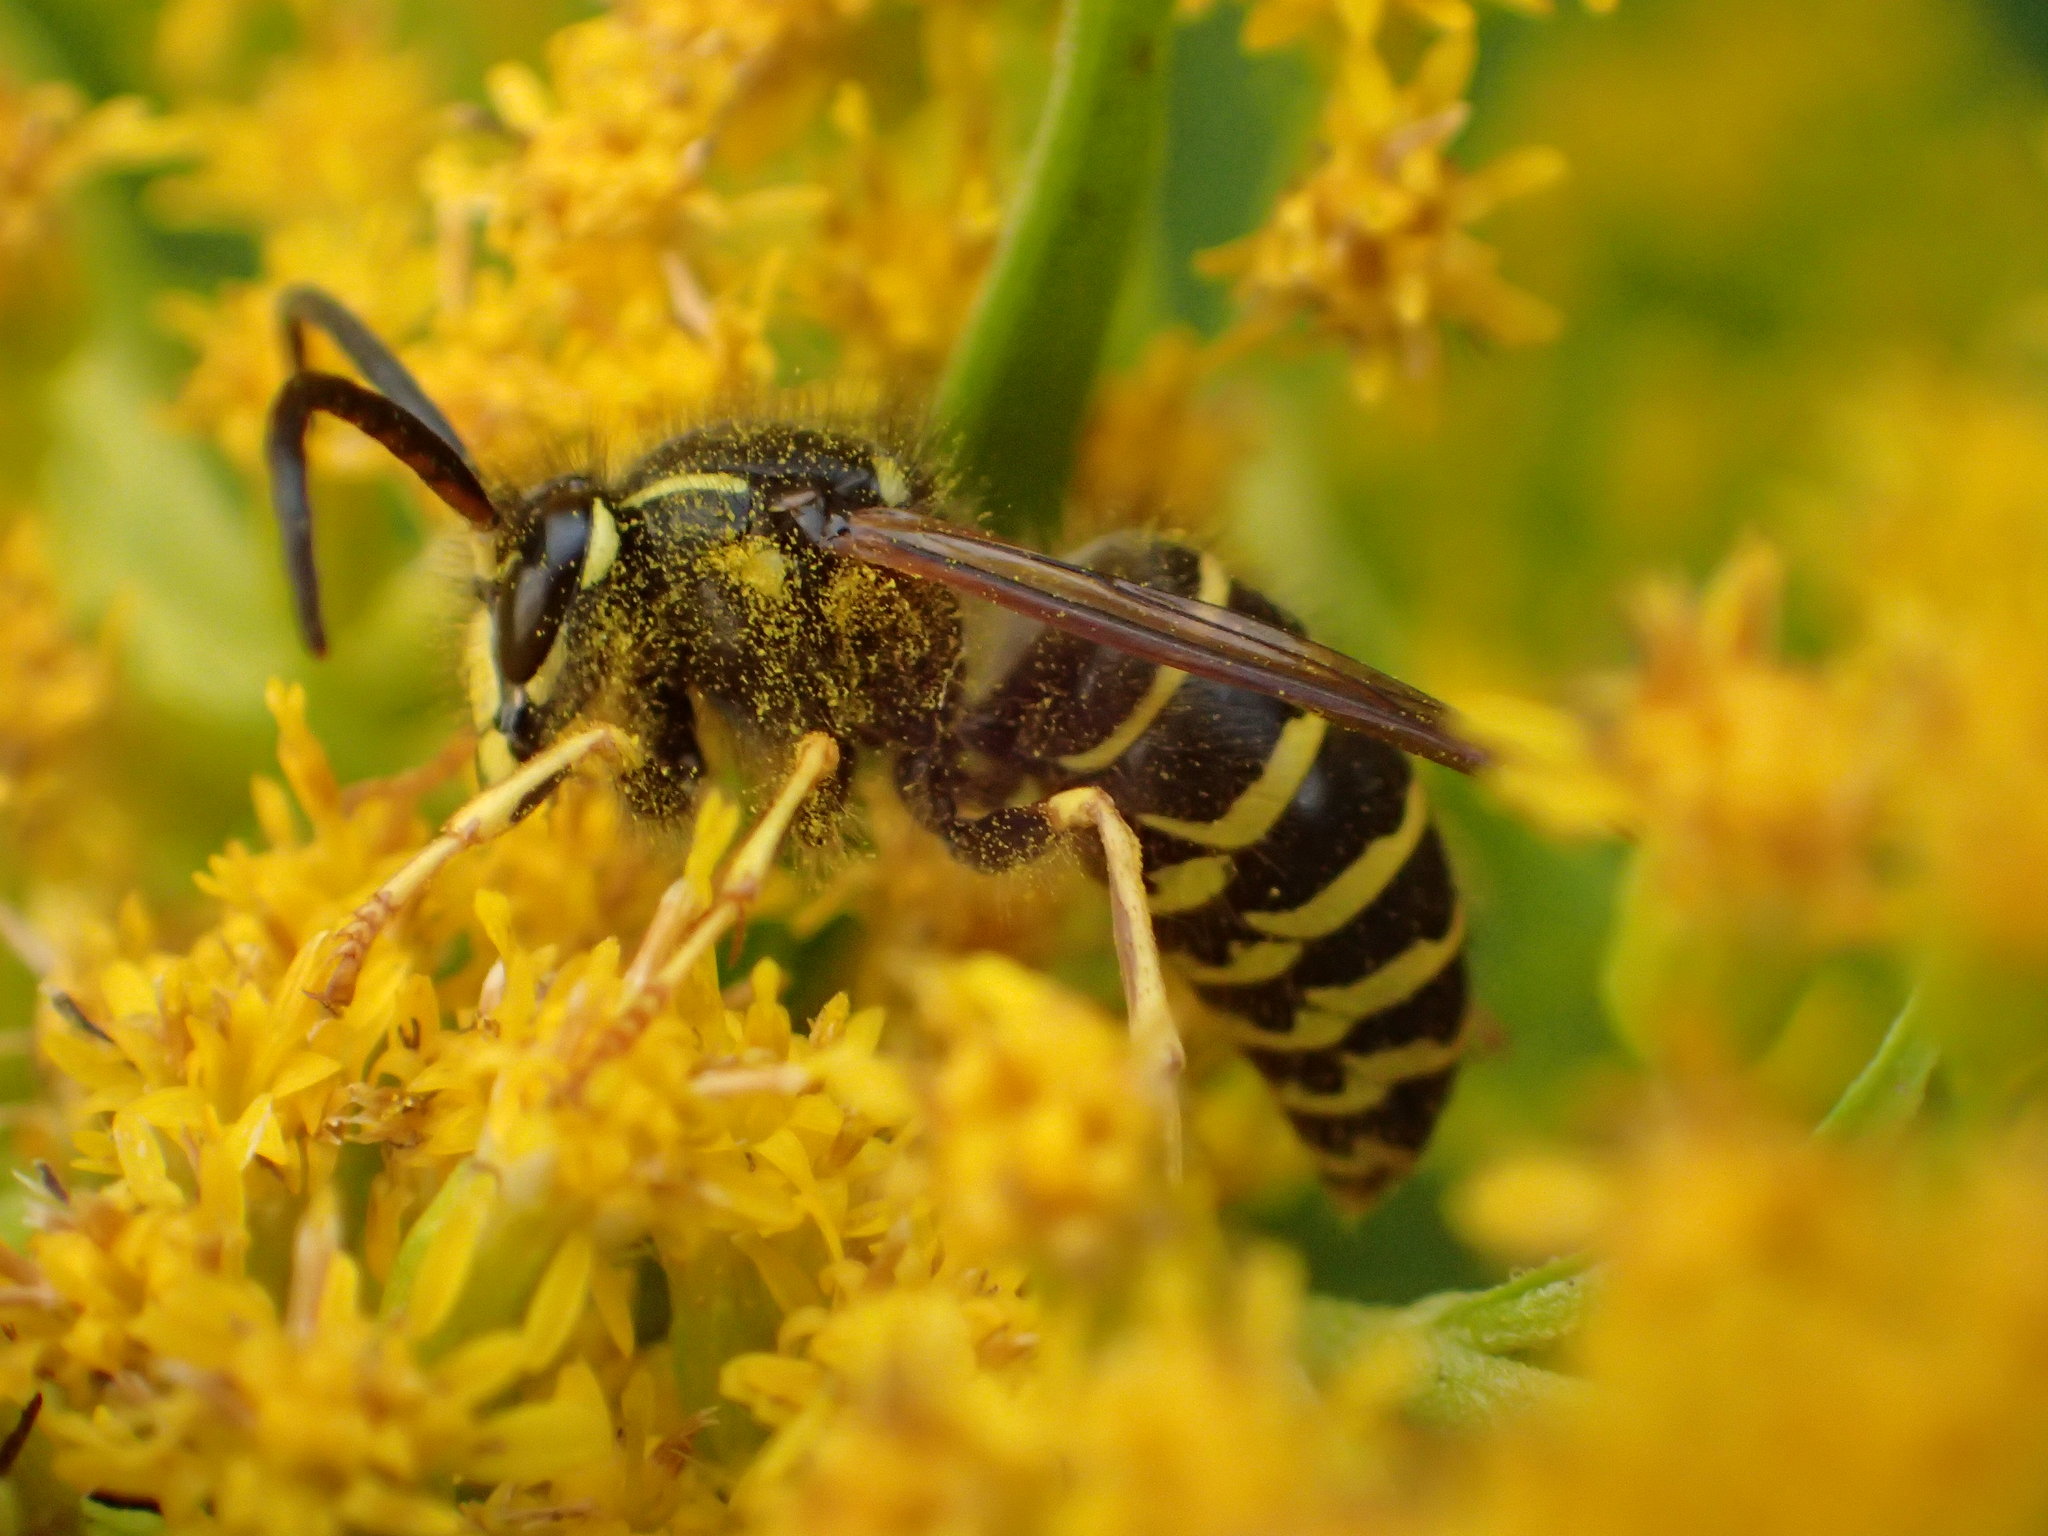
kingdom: Animalia
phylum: Arthropoda
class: Insecta
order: Hymenoptera
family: Vespidae
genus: Dolichovespula
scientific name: Dolichovespula norvegicoides
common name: Northern aerial yellowjacket
